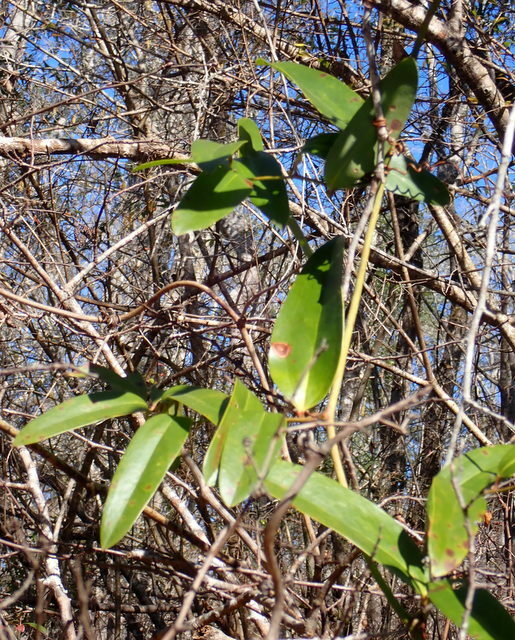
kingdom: Plantae
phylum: Tracheophyta
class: Liliopsida
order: Liliales
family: Smilacaceae
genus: Smilax
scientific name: Smilax laurifolia
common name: Bamboovine
